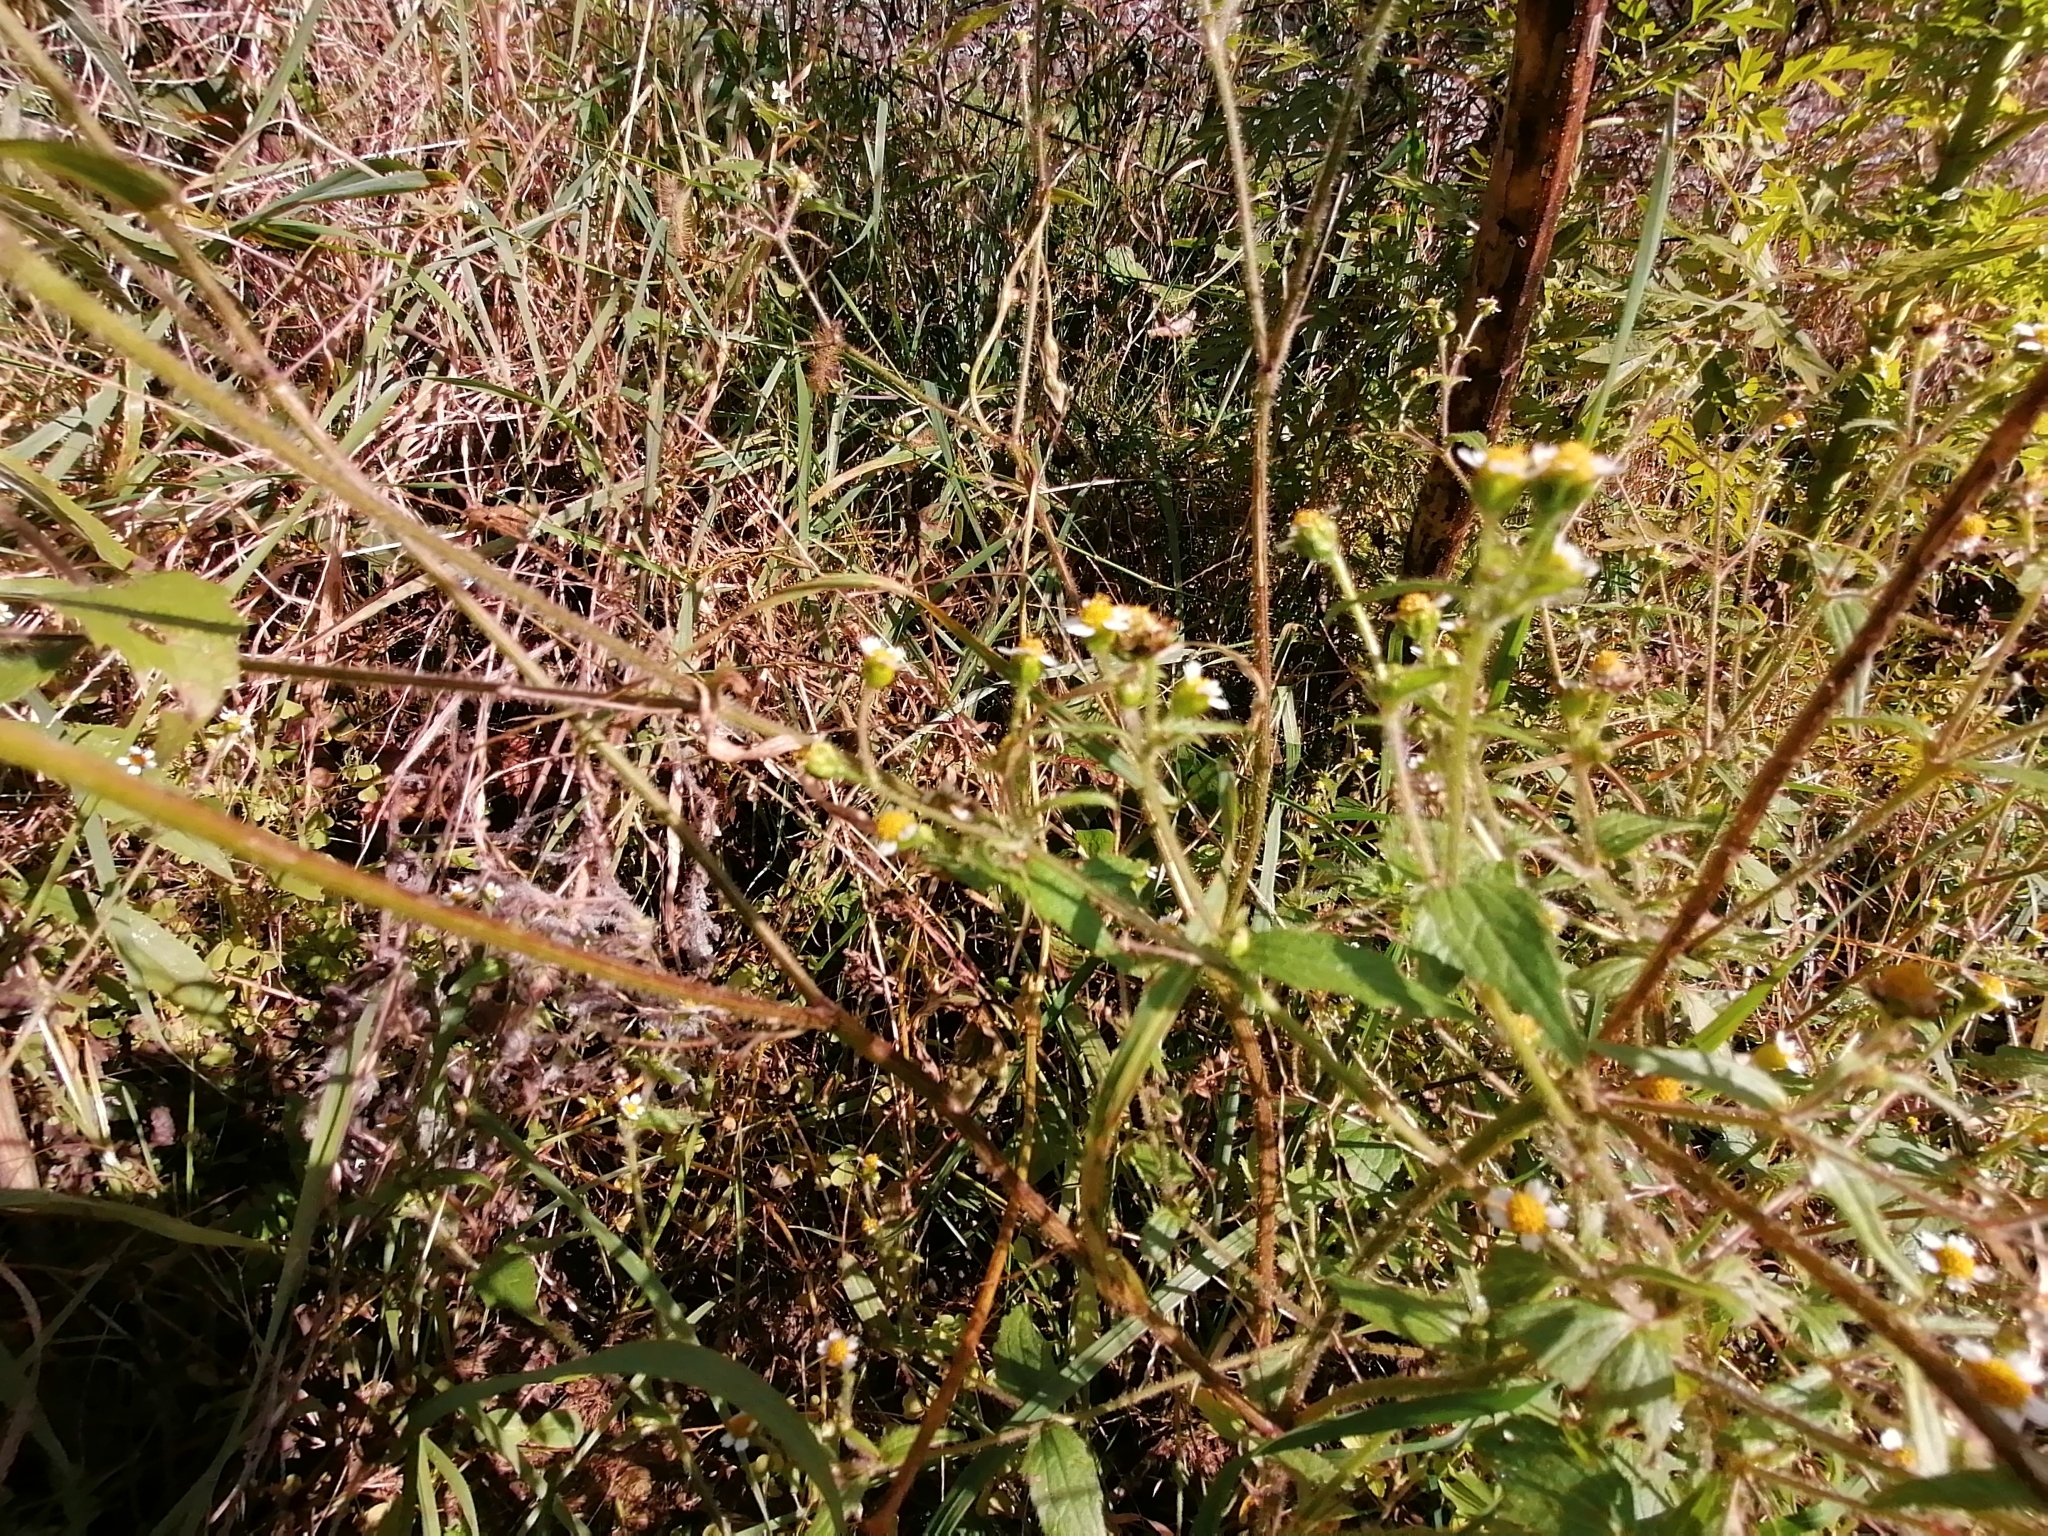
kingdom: Plantae
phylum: Tracheophyta
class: Magnoliopsida
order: Asterales
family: Asteraceae
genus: Galinsoga
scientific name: Galinsoga quadriradiata
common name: Shaggy soldier
